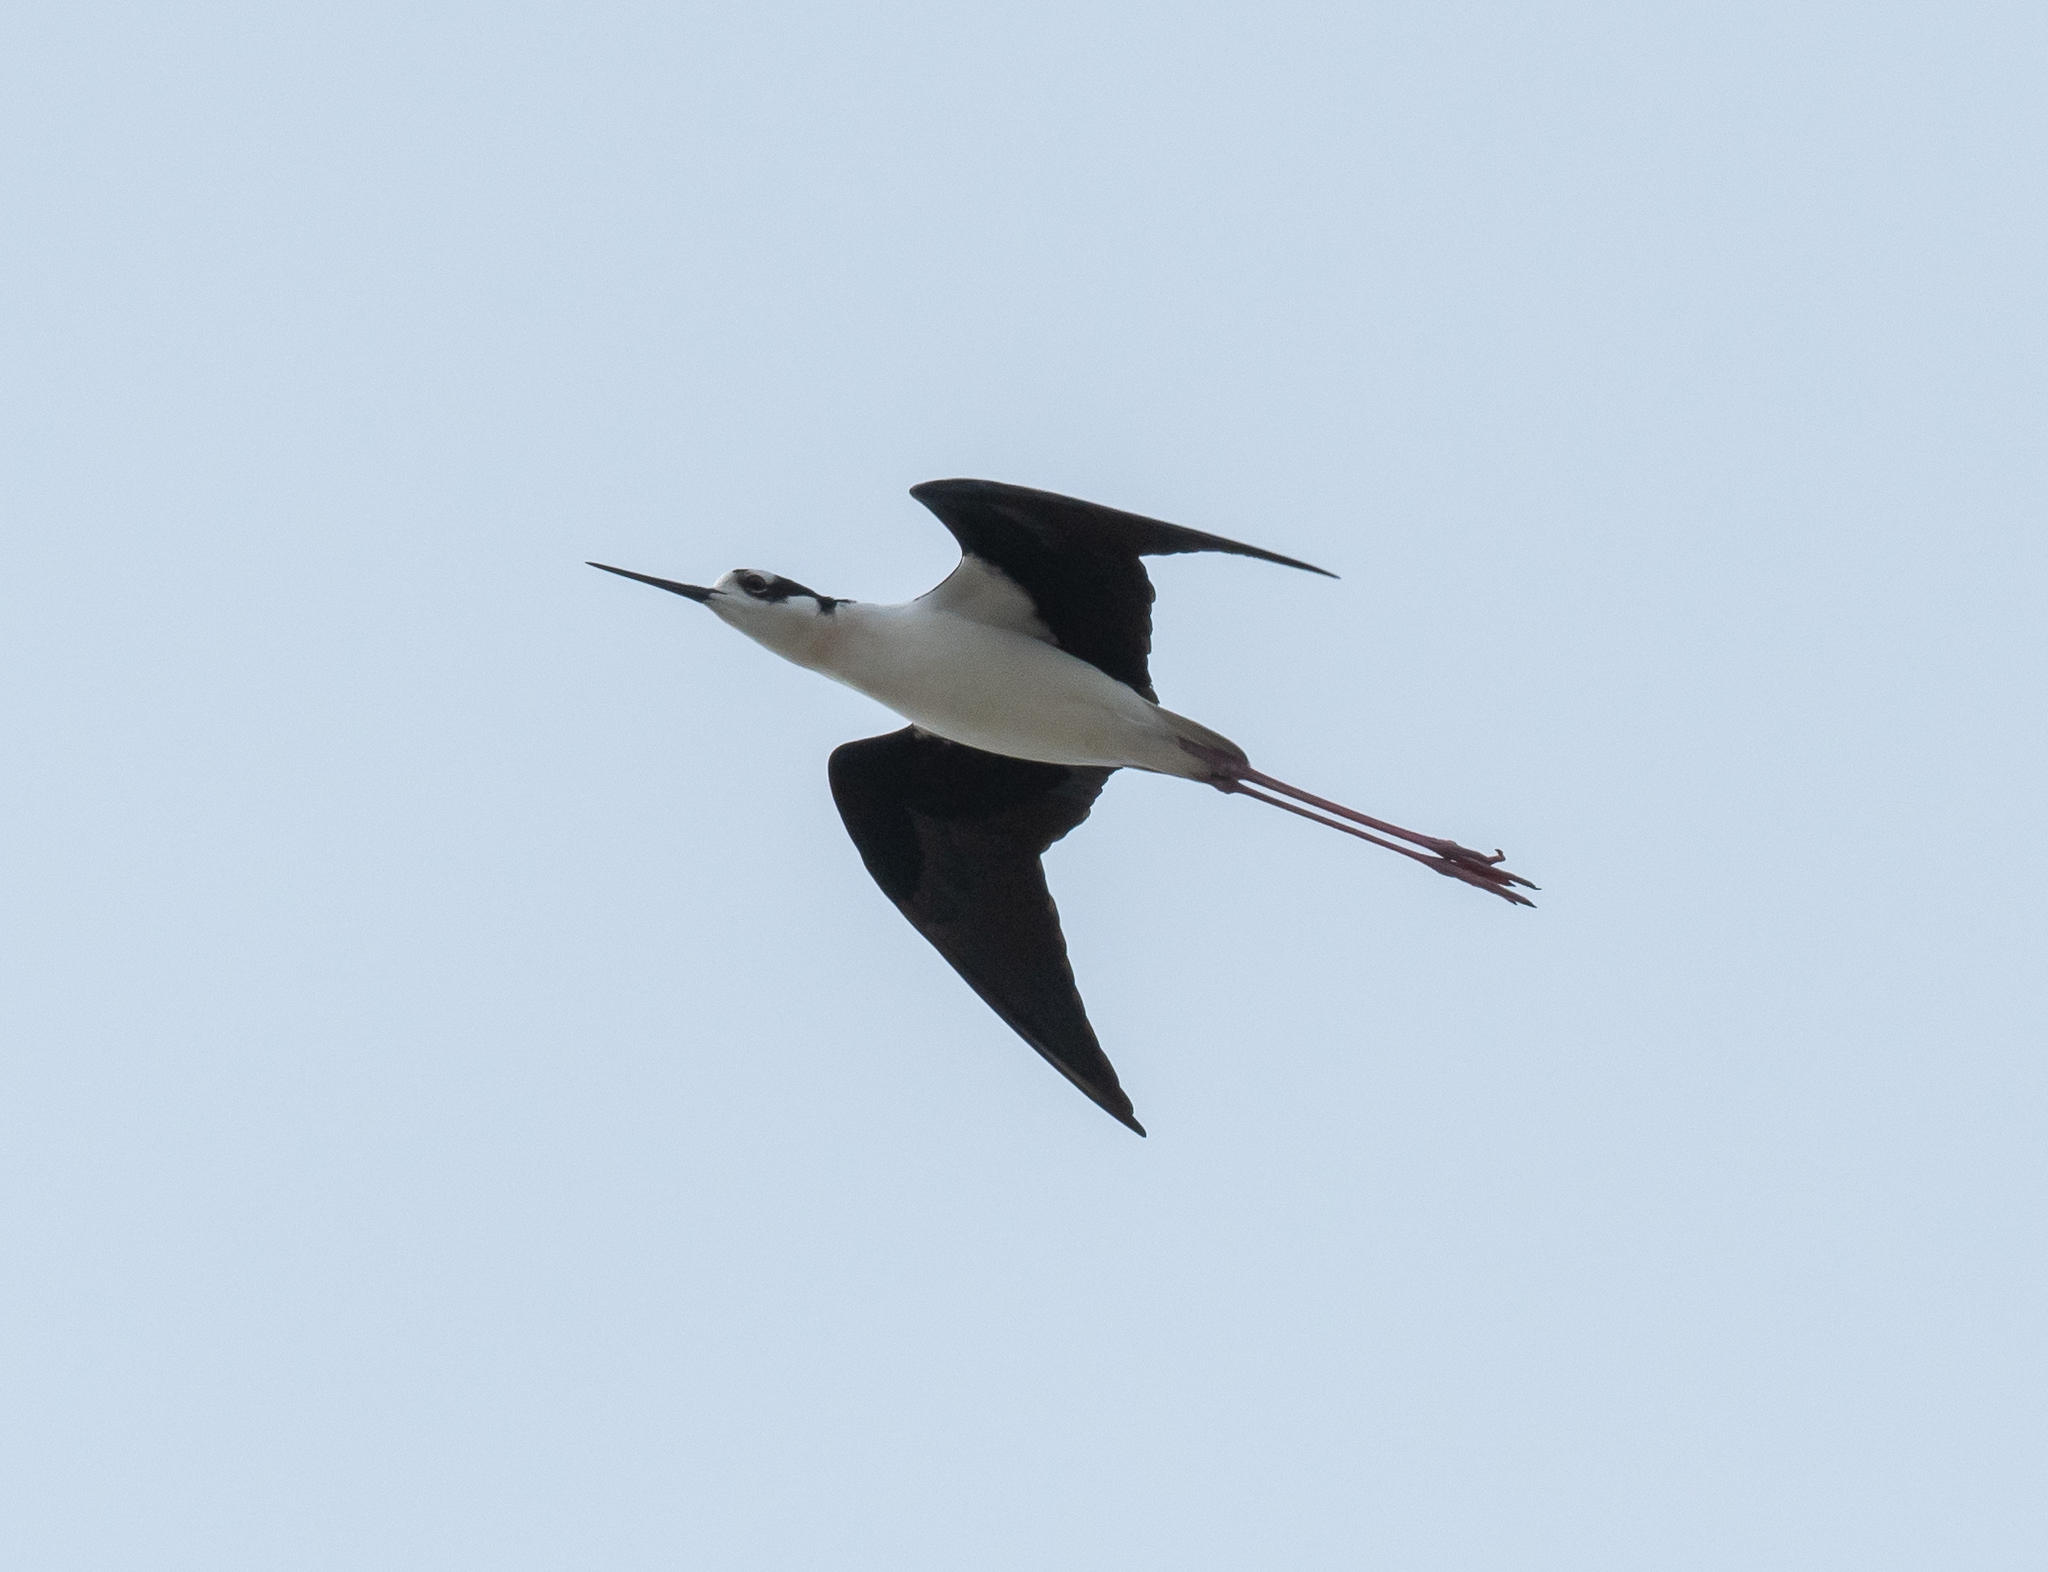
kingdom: Animalia
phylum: Chordata
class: Aves
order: Charadriiformes
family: Recurvirostridae
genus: Himantopus
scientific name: Himantopus mexicanus
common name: Black-necked stilt
